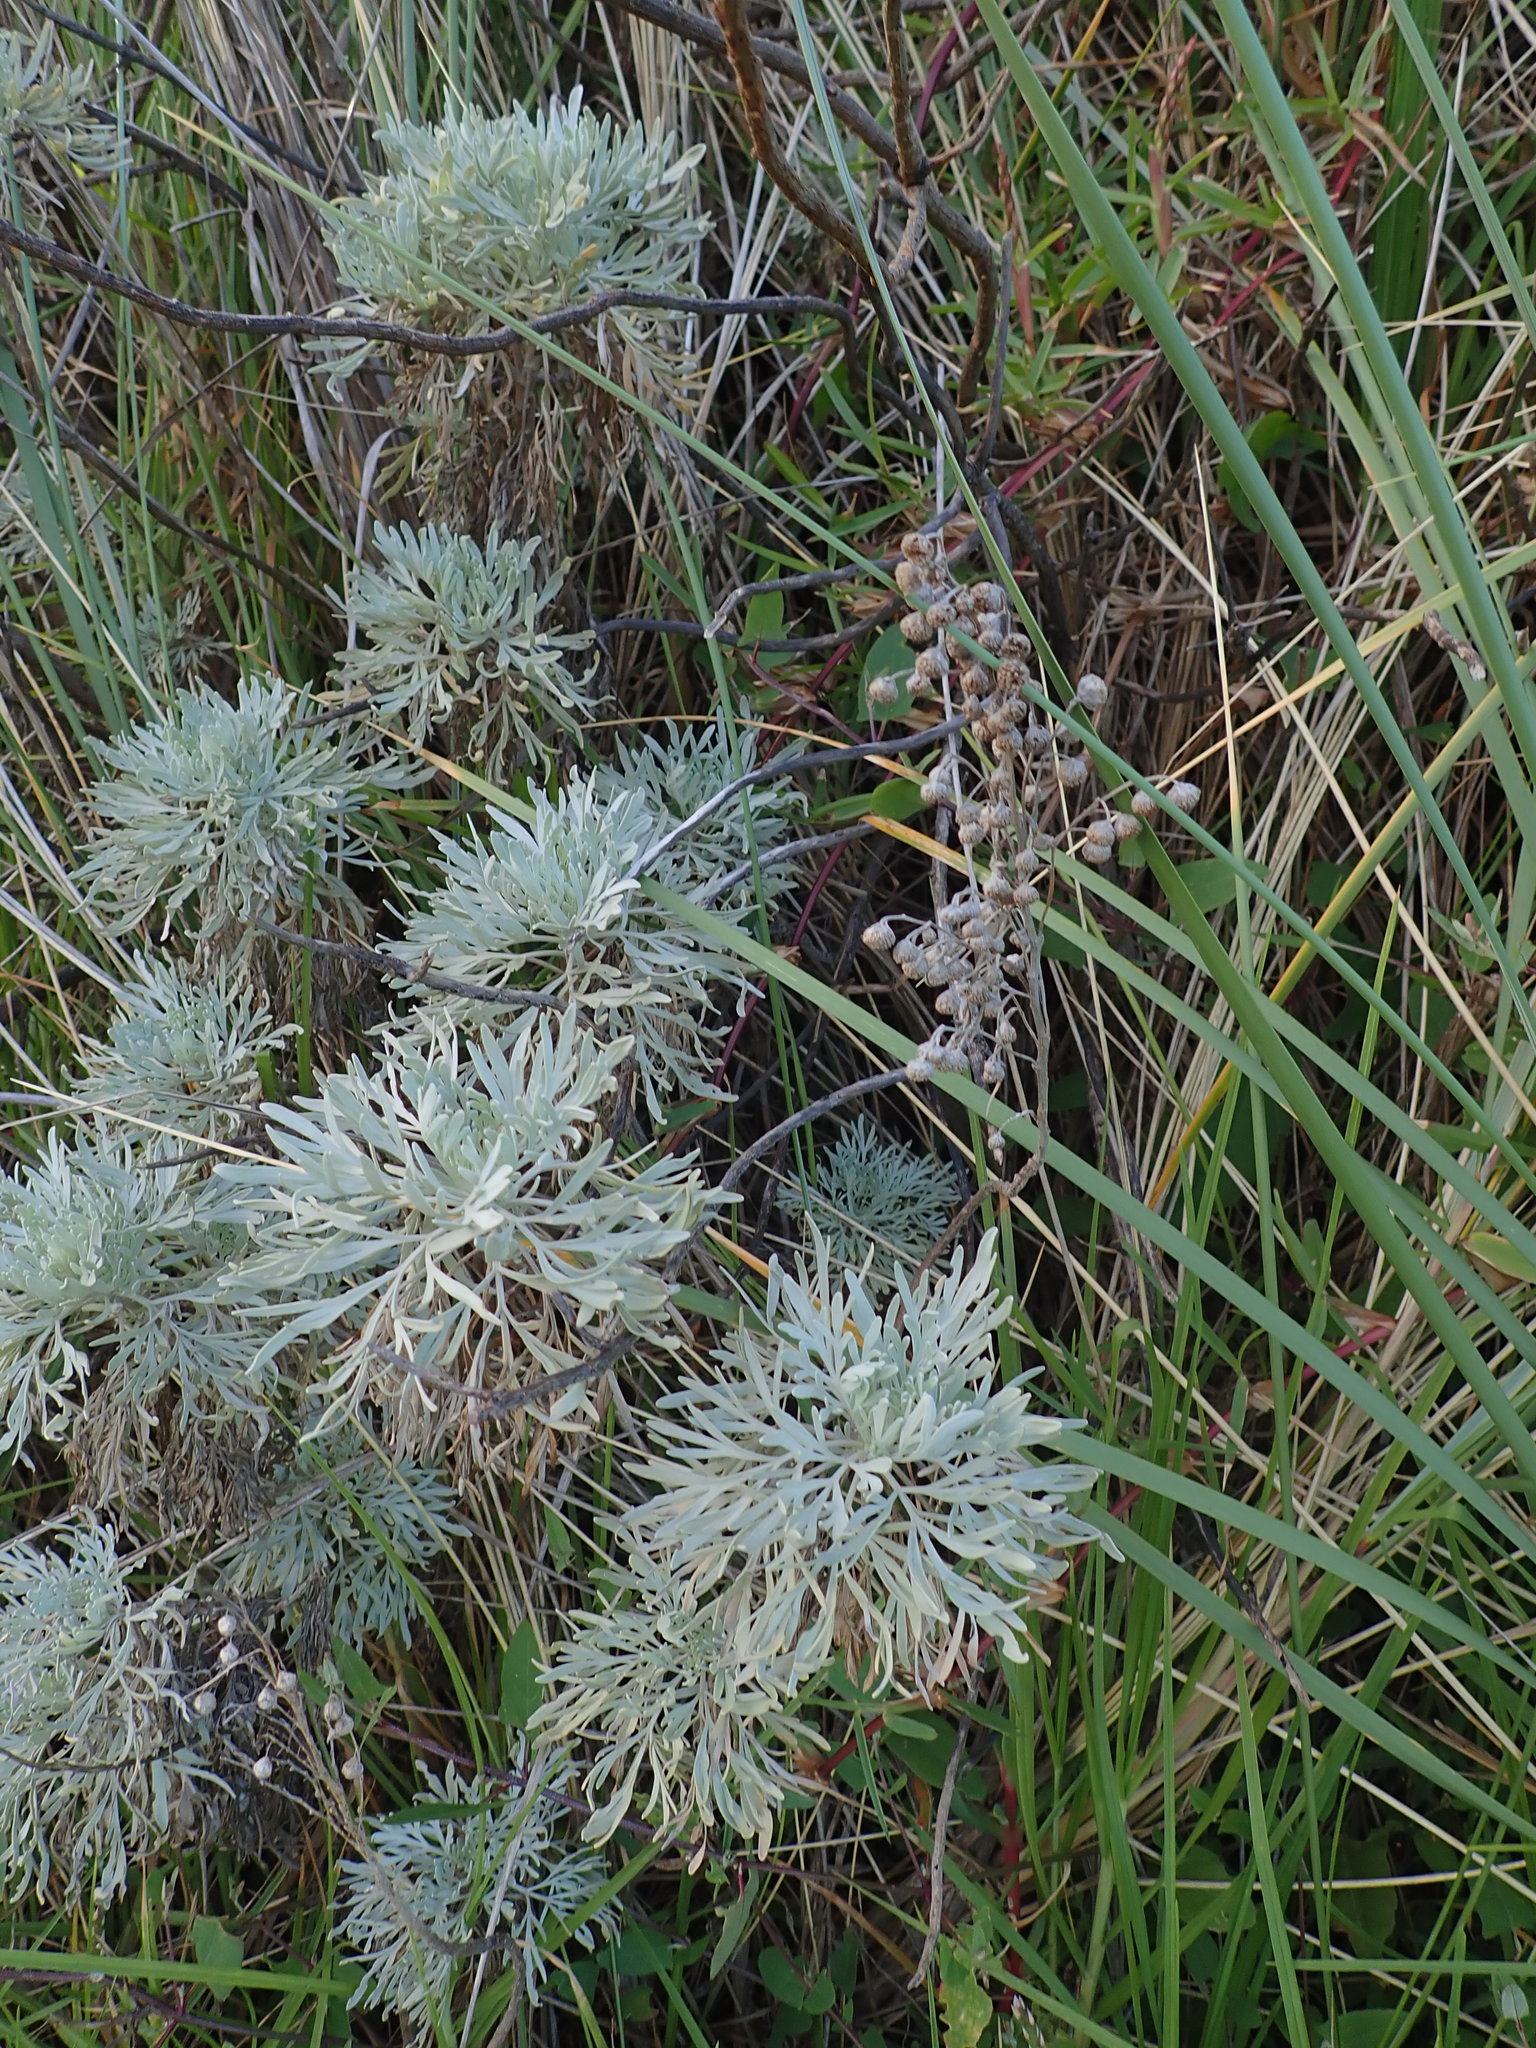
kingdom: Plantae
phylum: Tracheophyta
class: Magnoliopsida
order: Asterales
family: Asteraceae
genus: Artemisia
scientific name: Artemisia arborescens
